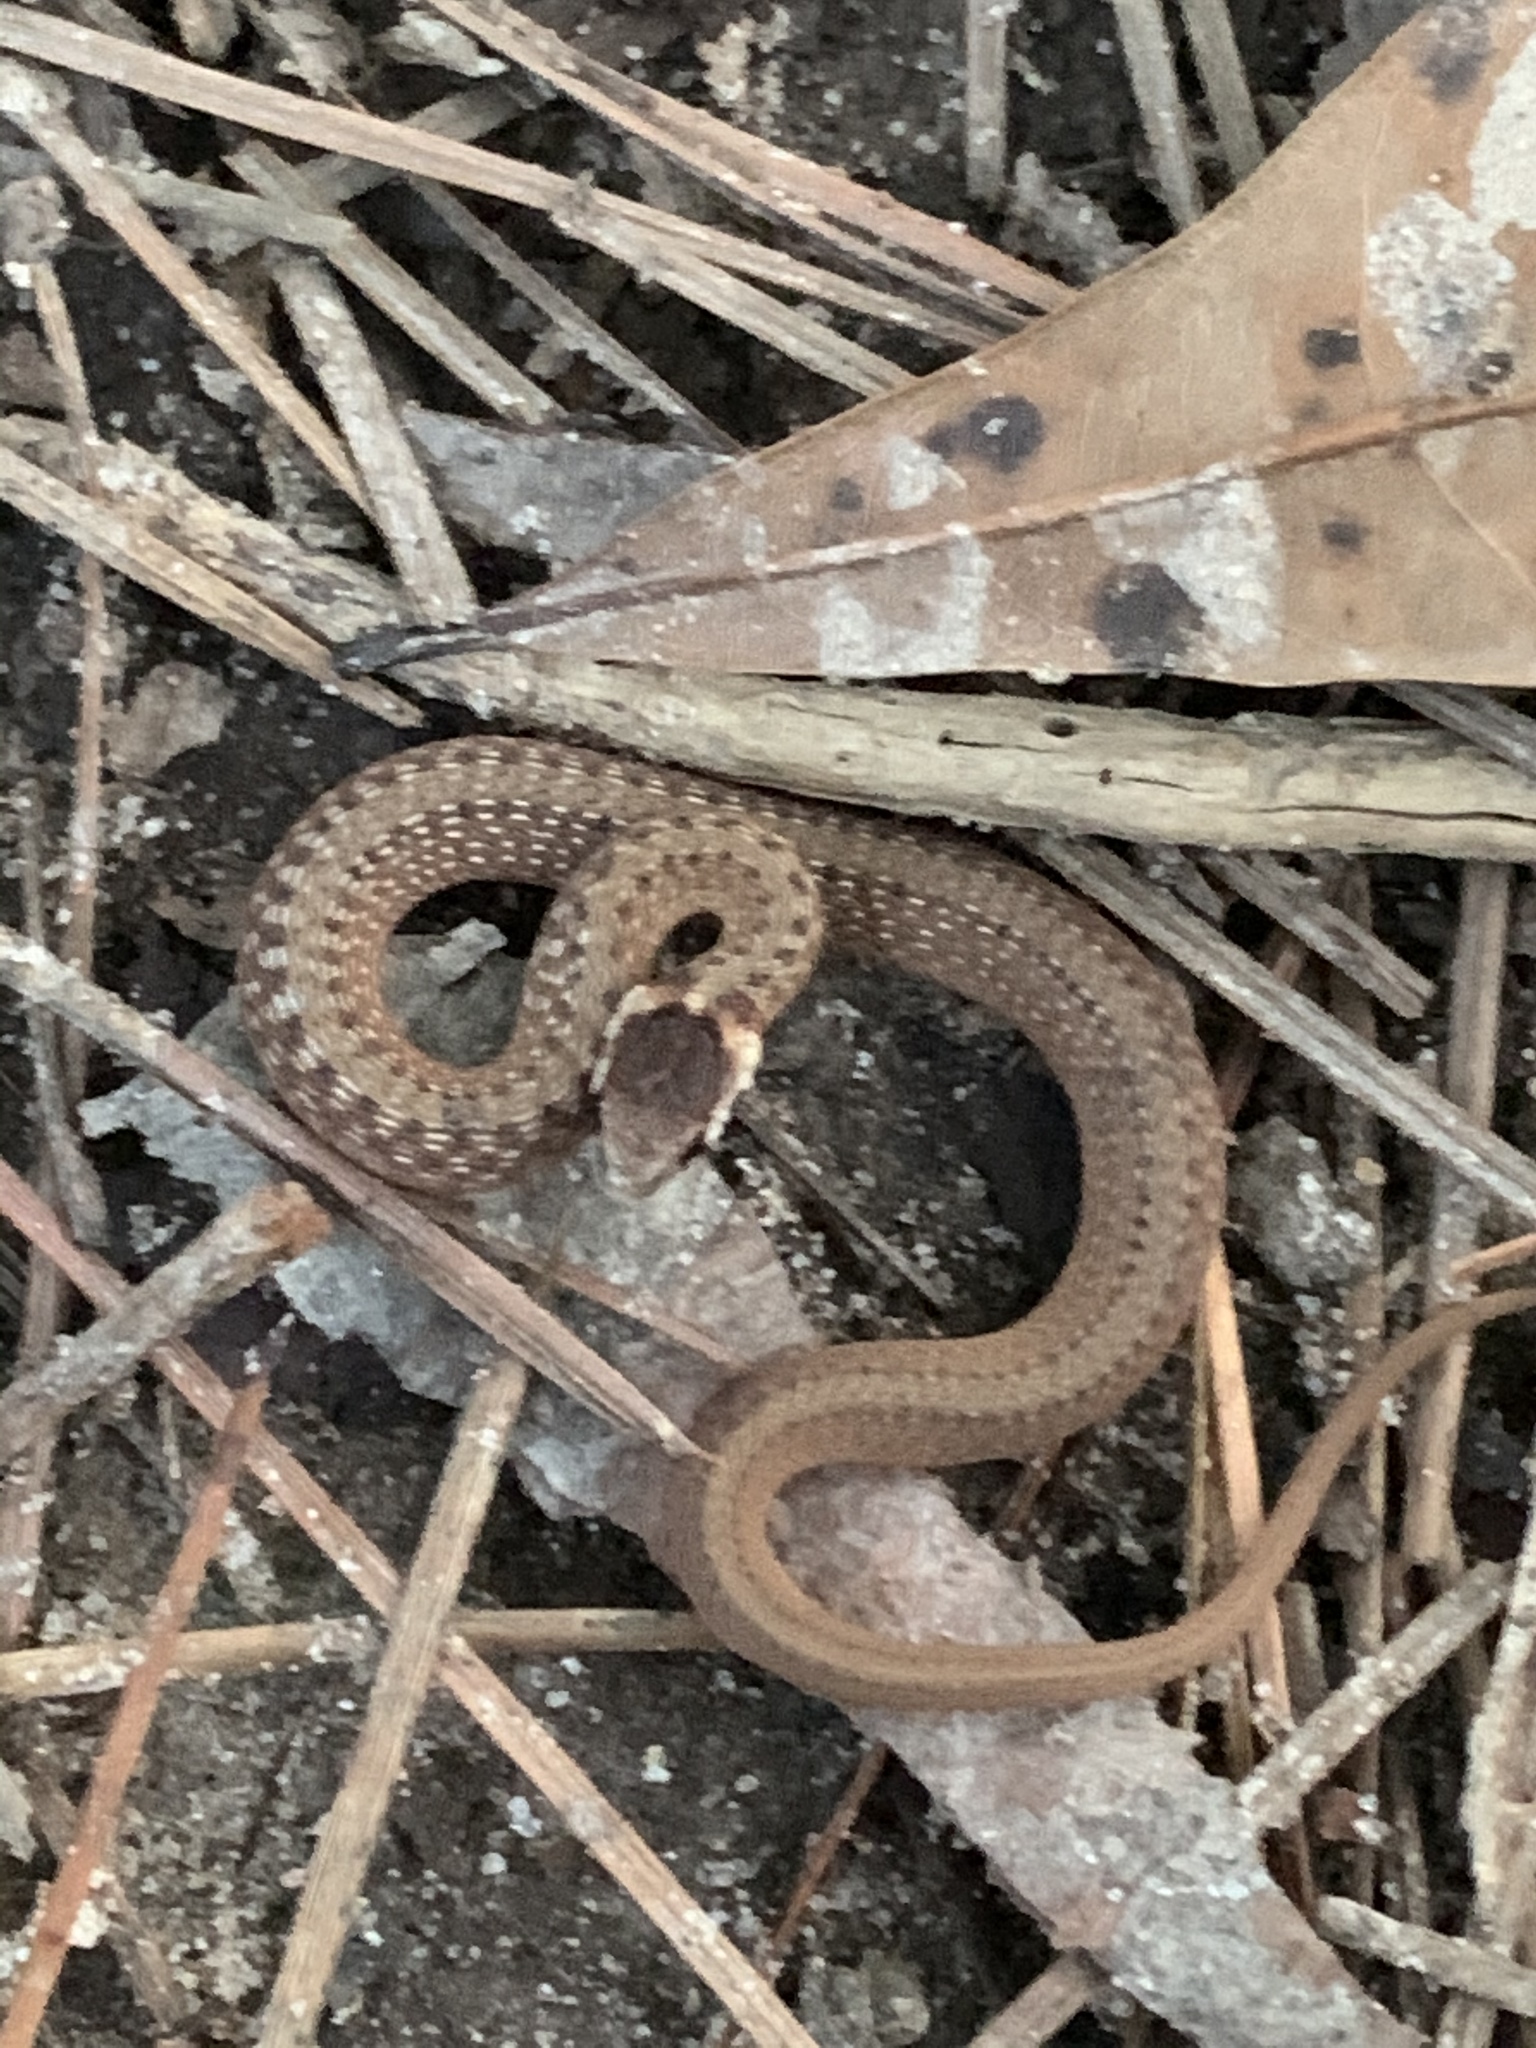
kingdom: Animalia
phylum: Chordata
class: Squamata
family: Colubridae
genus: Storeria
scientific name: Storeria dekayi
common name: (dekay’s) brown snake
